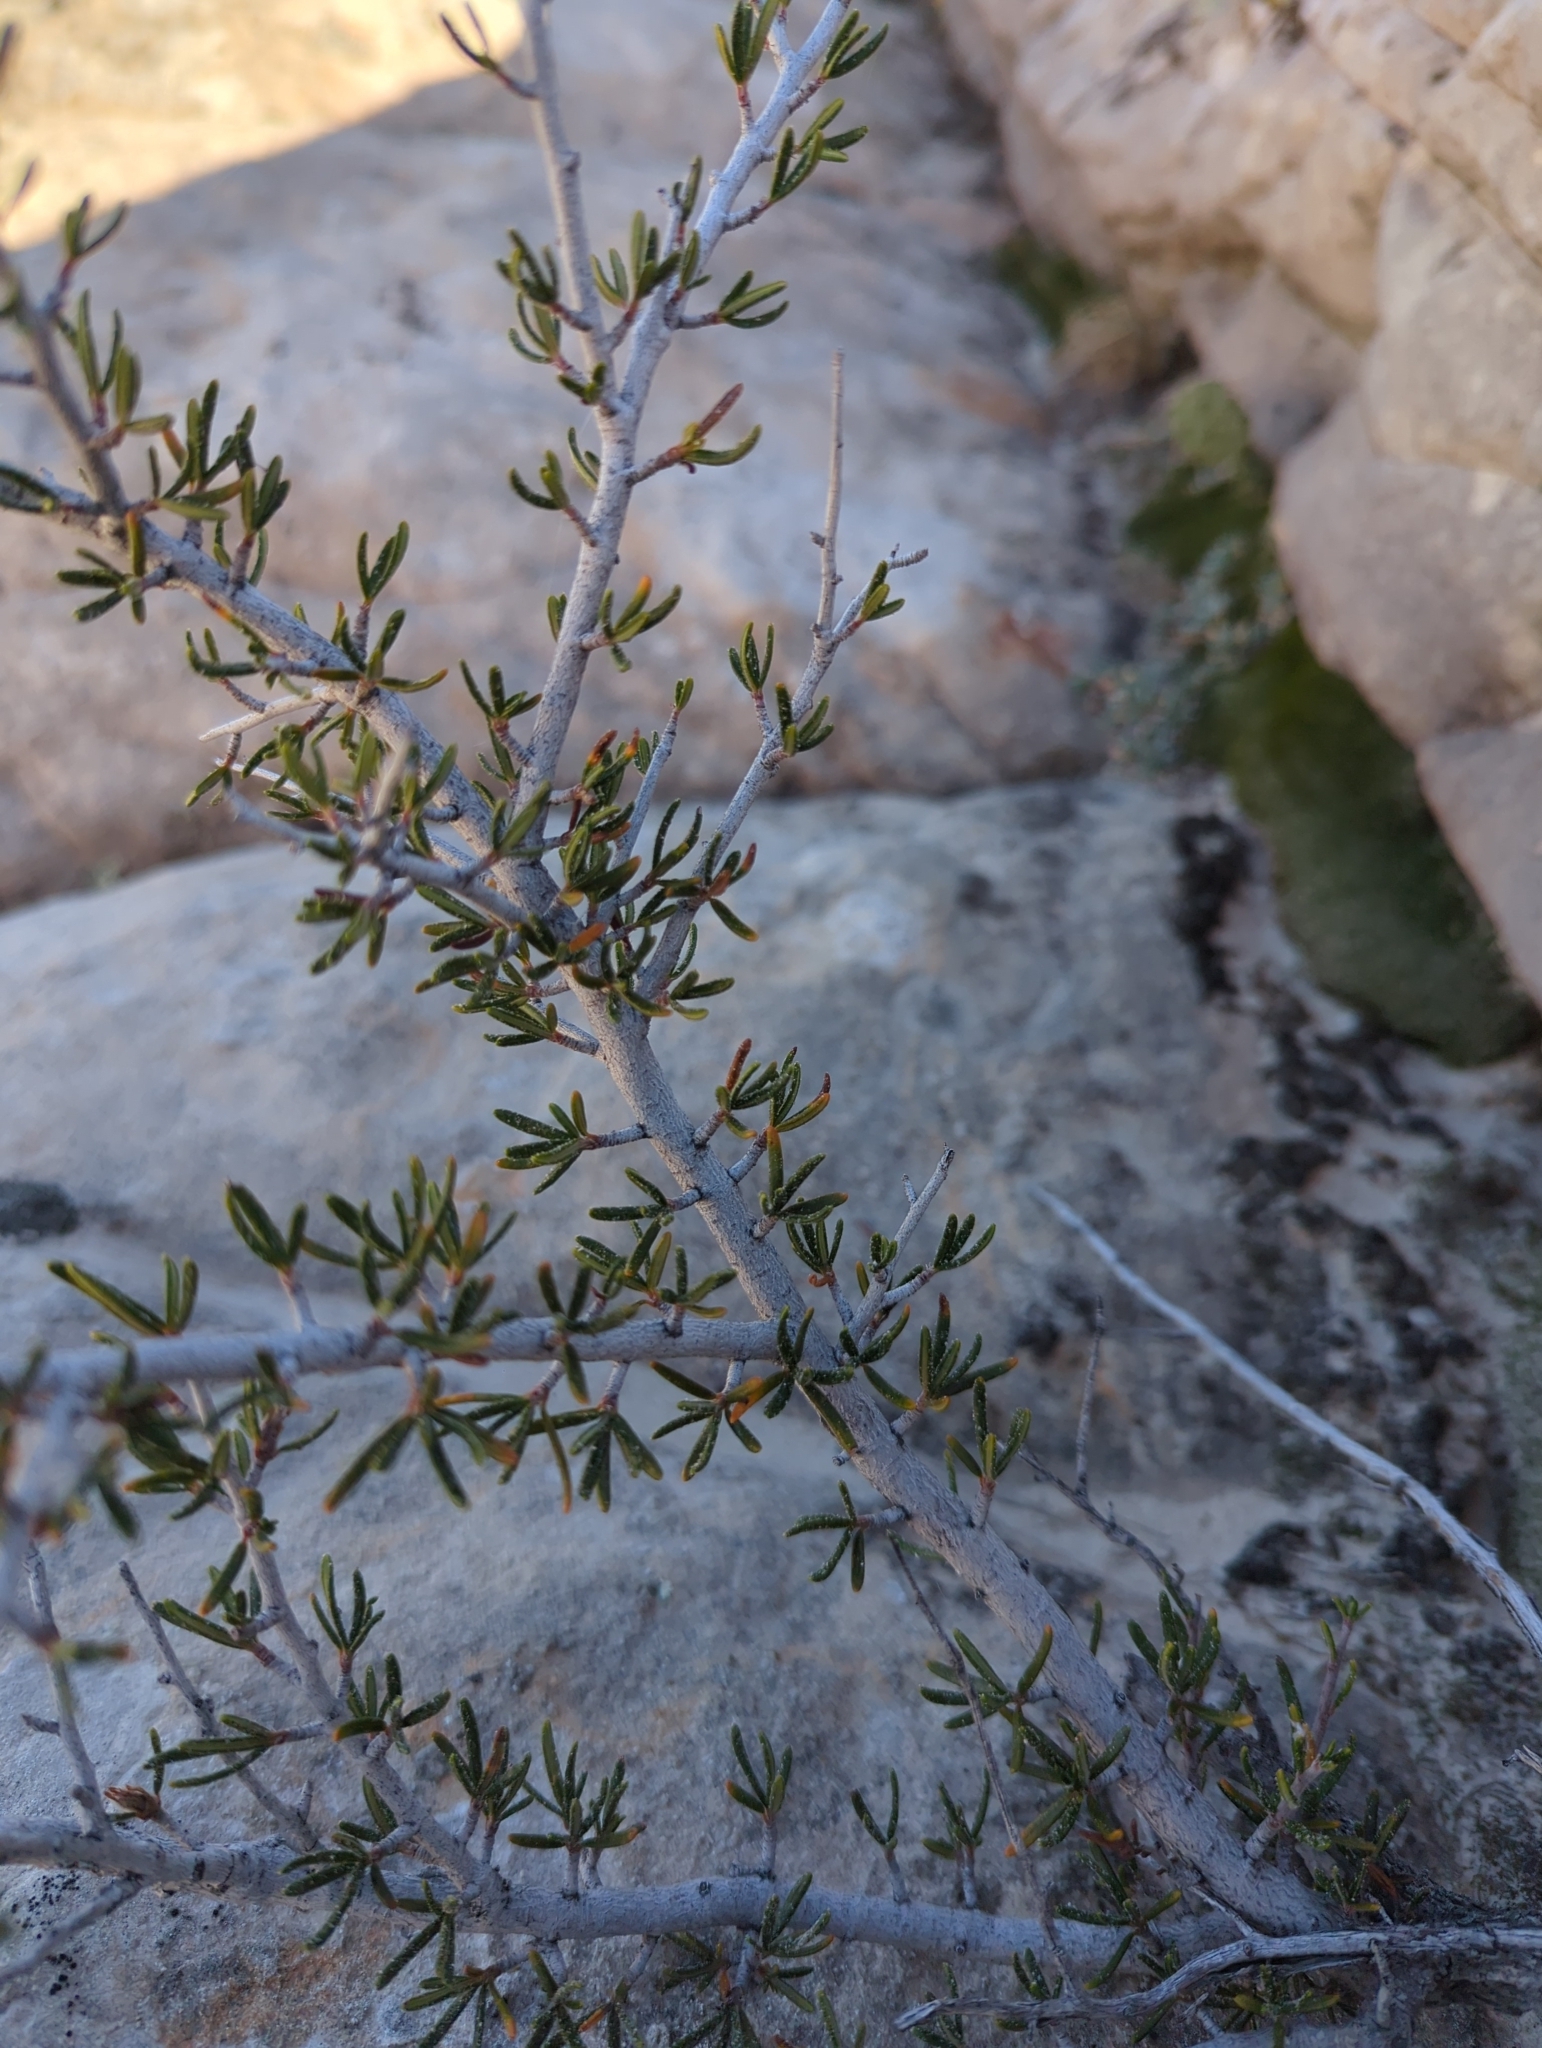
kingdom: Plantae
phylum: Tracheophyta
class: Magnoliopsida
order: Rosales
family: Rosaceae
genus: Cercocarpus
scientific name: Cercocarpus intricatus
